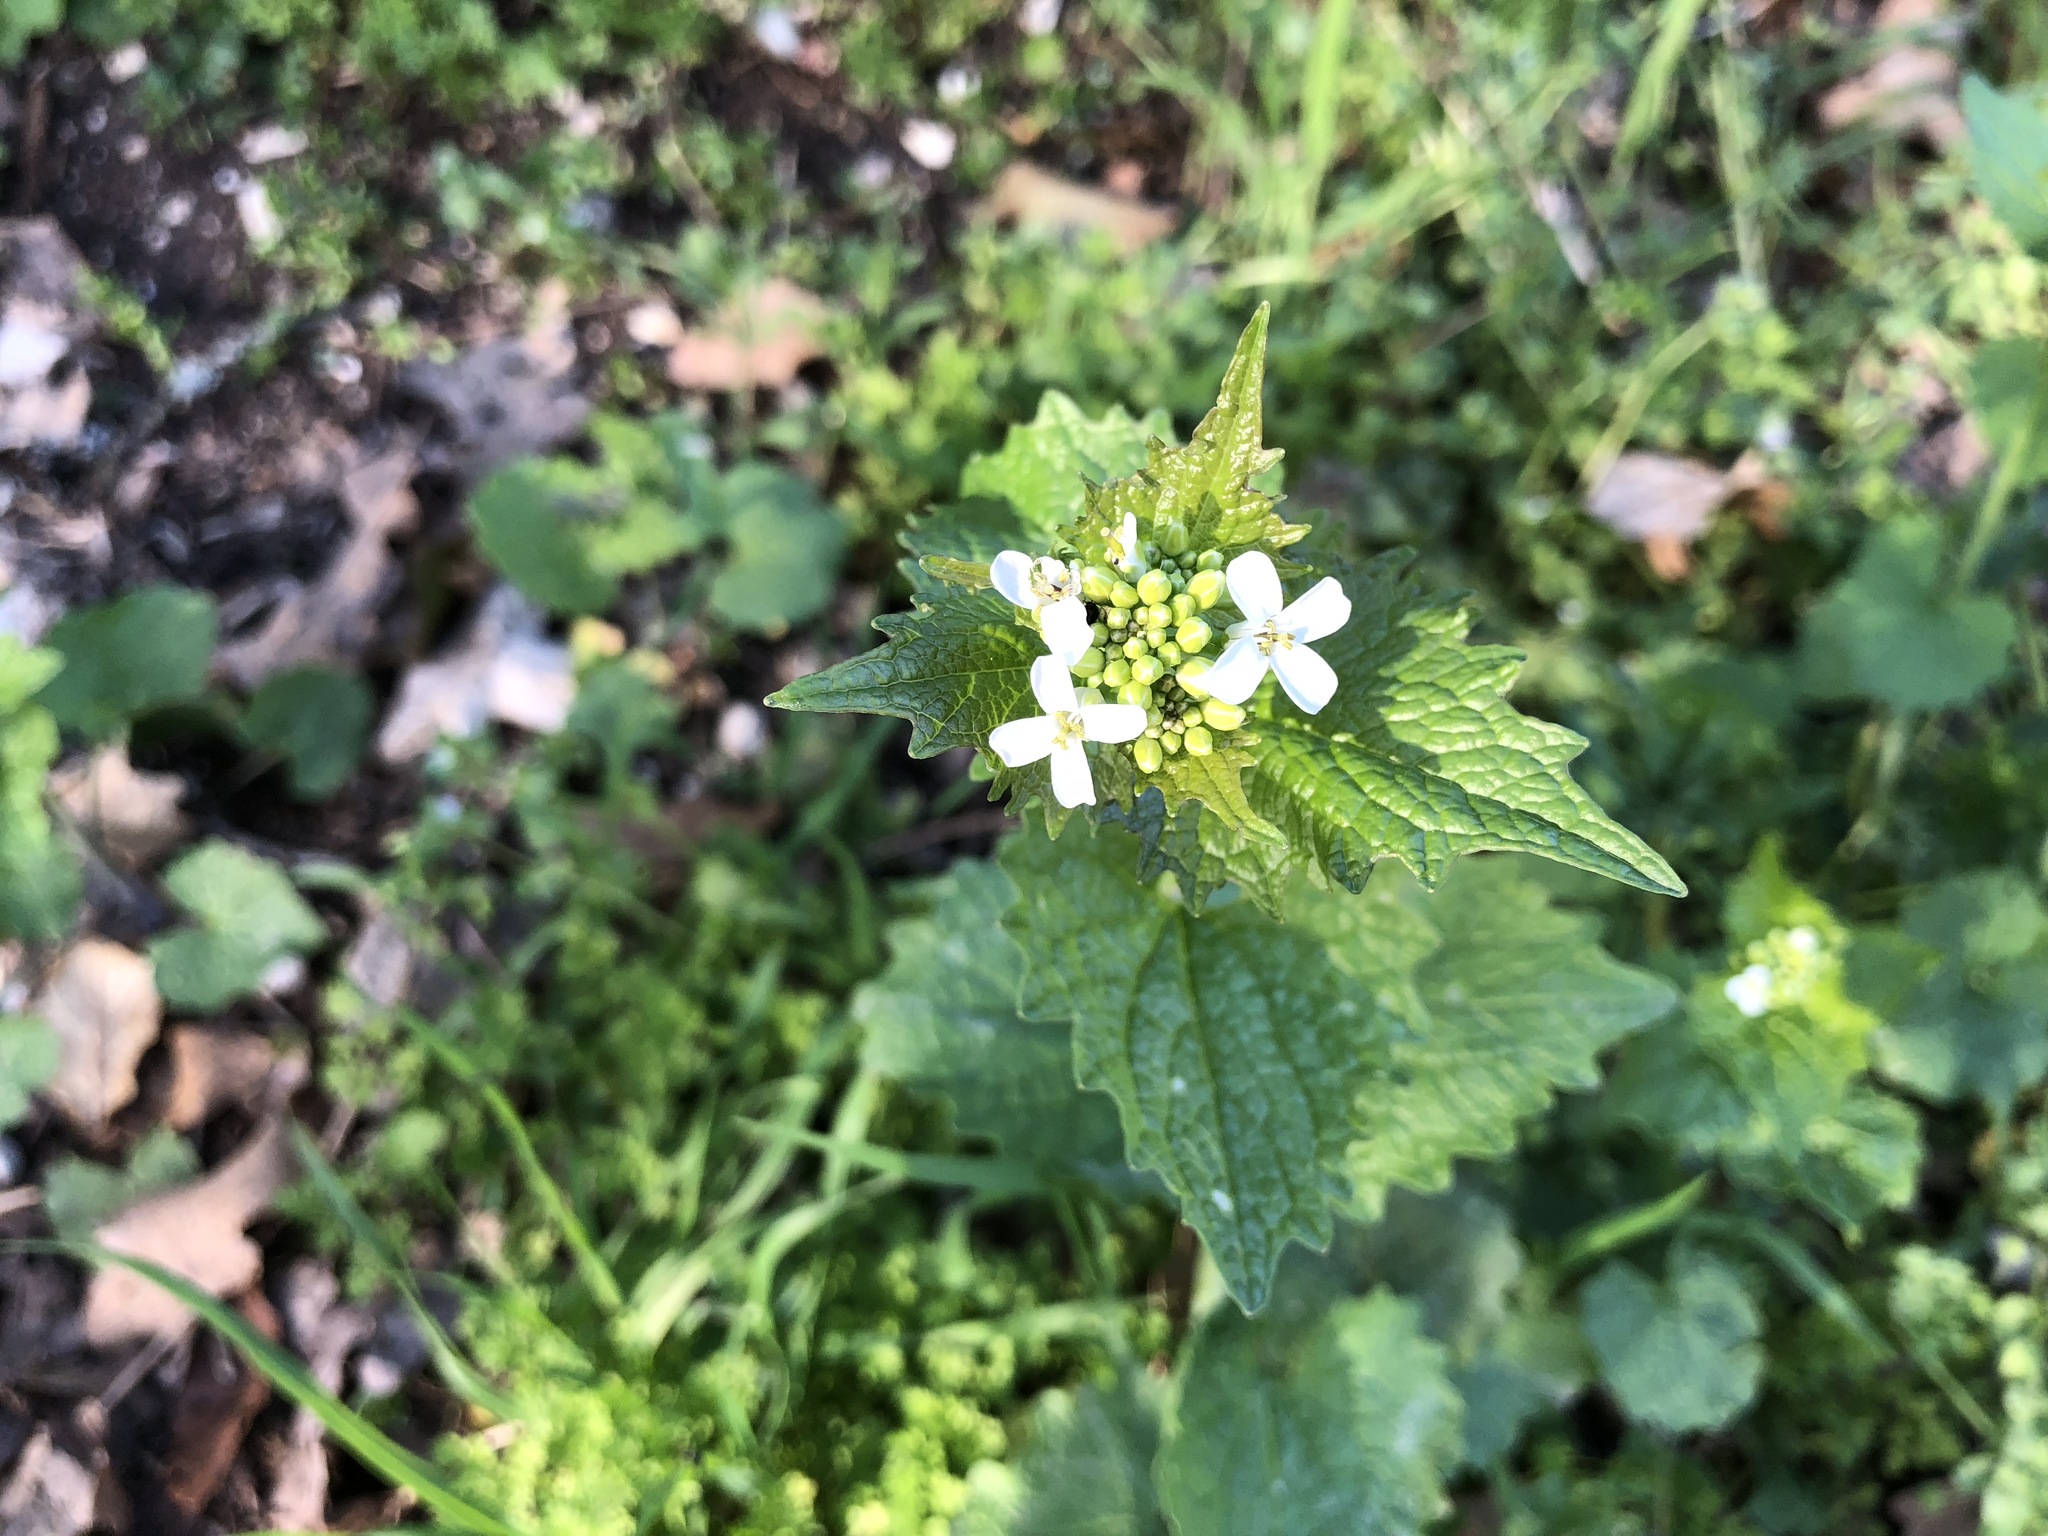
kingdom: Plantae
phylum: Tracheophyta
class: Magnoliopsida
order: Brassicales
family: Brassicaceae
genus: Alliaria
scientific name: Alliaria petiolata
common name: Garlic mustard
